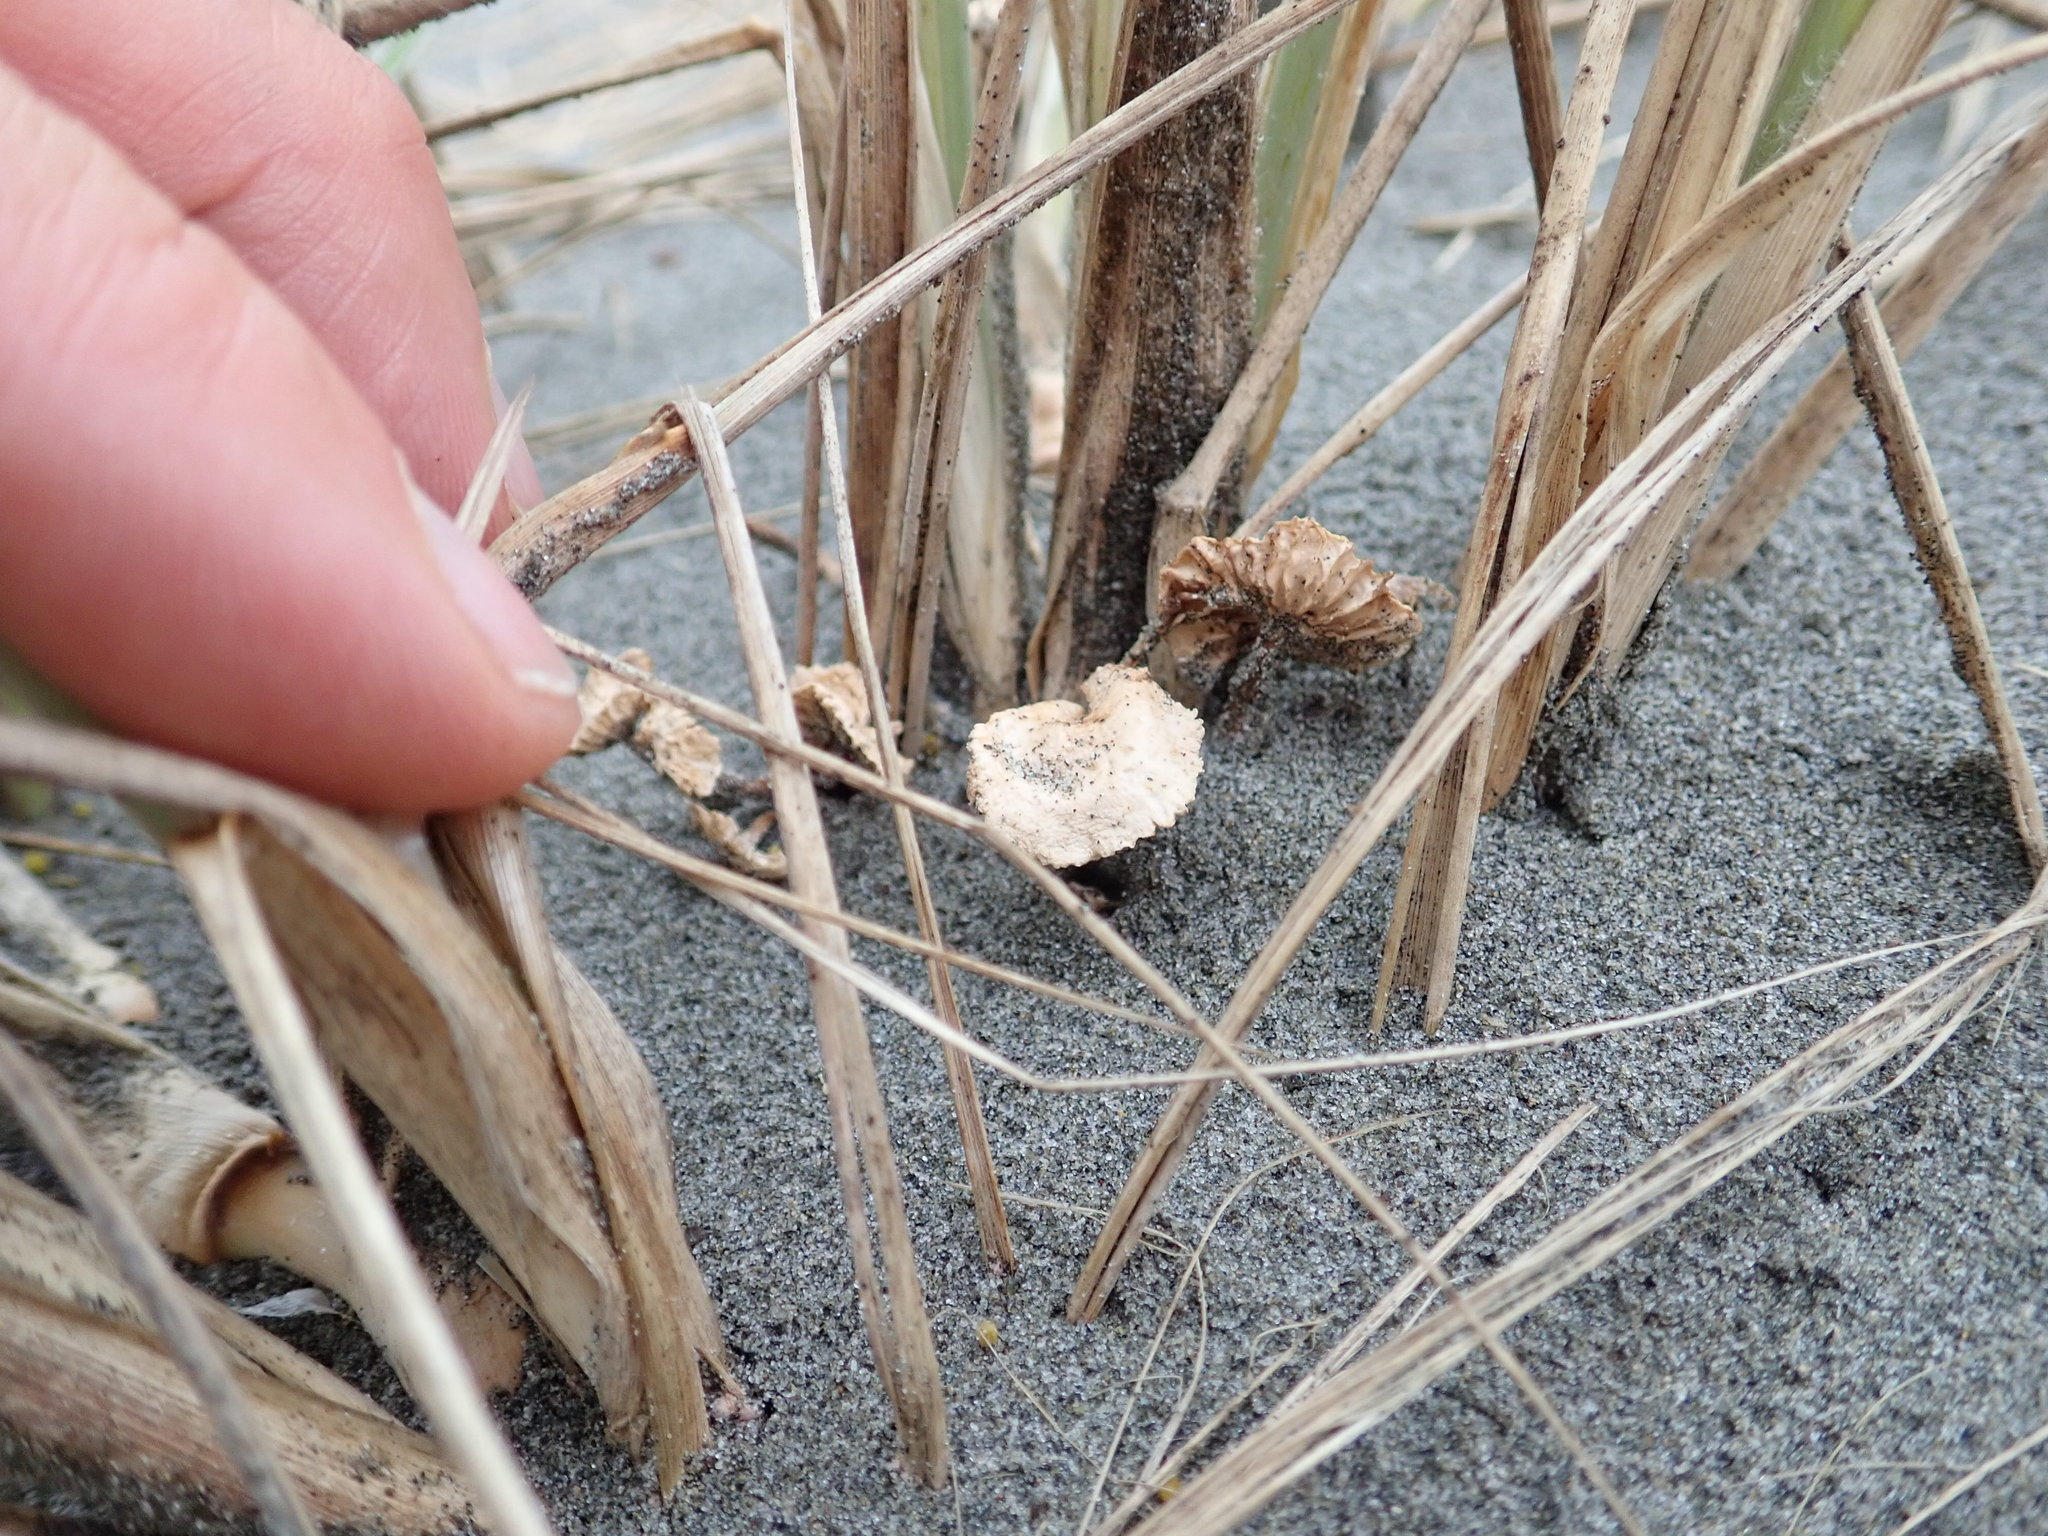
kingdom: Fungi
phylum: Basidiomycota
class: Agaricomycetes
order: Agaricales
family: Marasmiaceae
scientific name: Marasmiaceae
